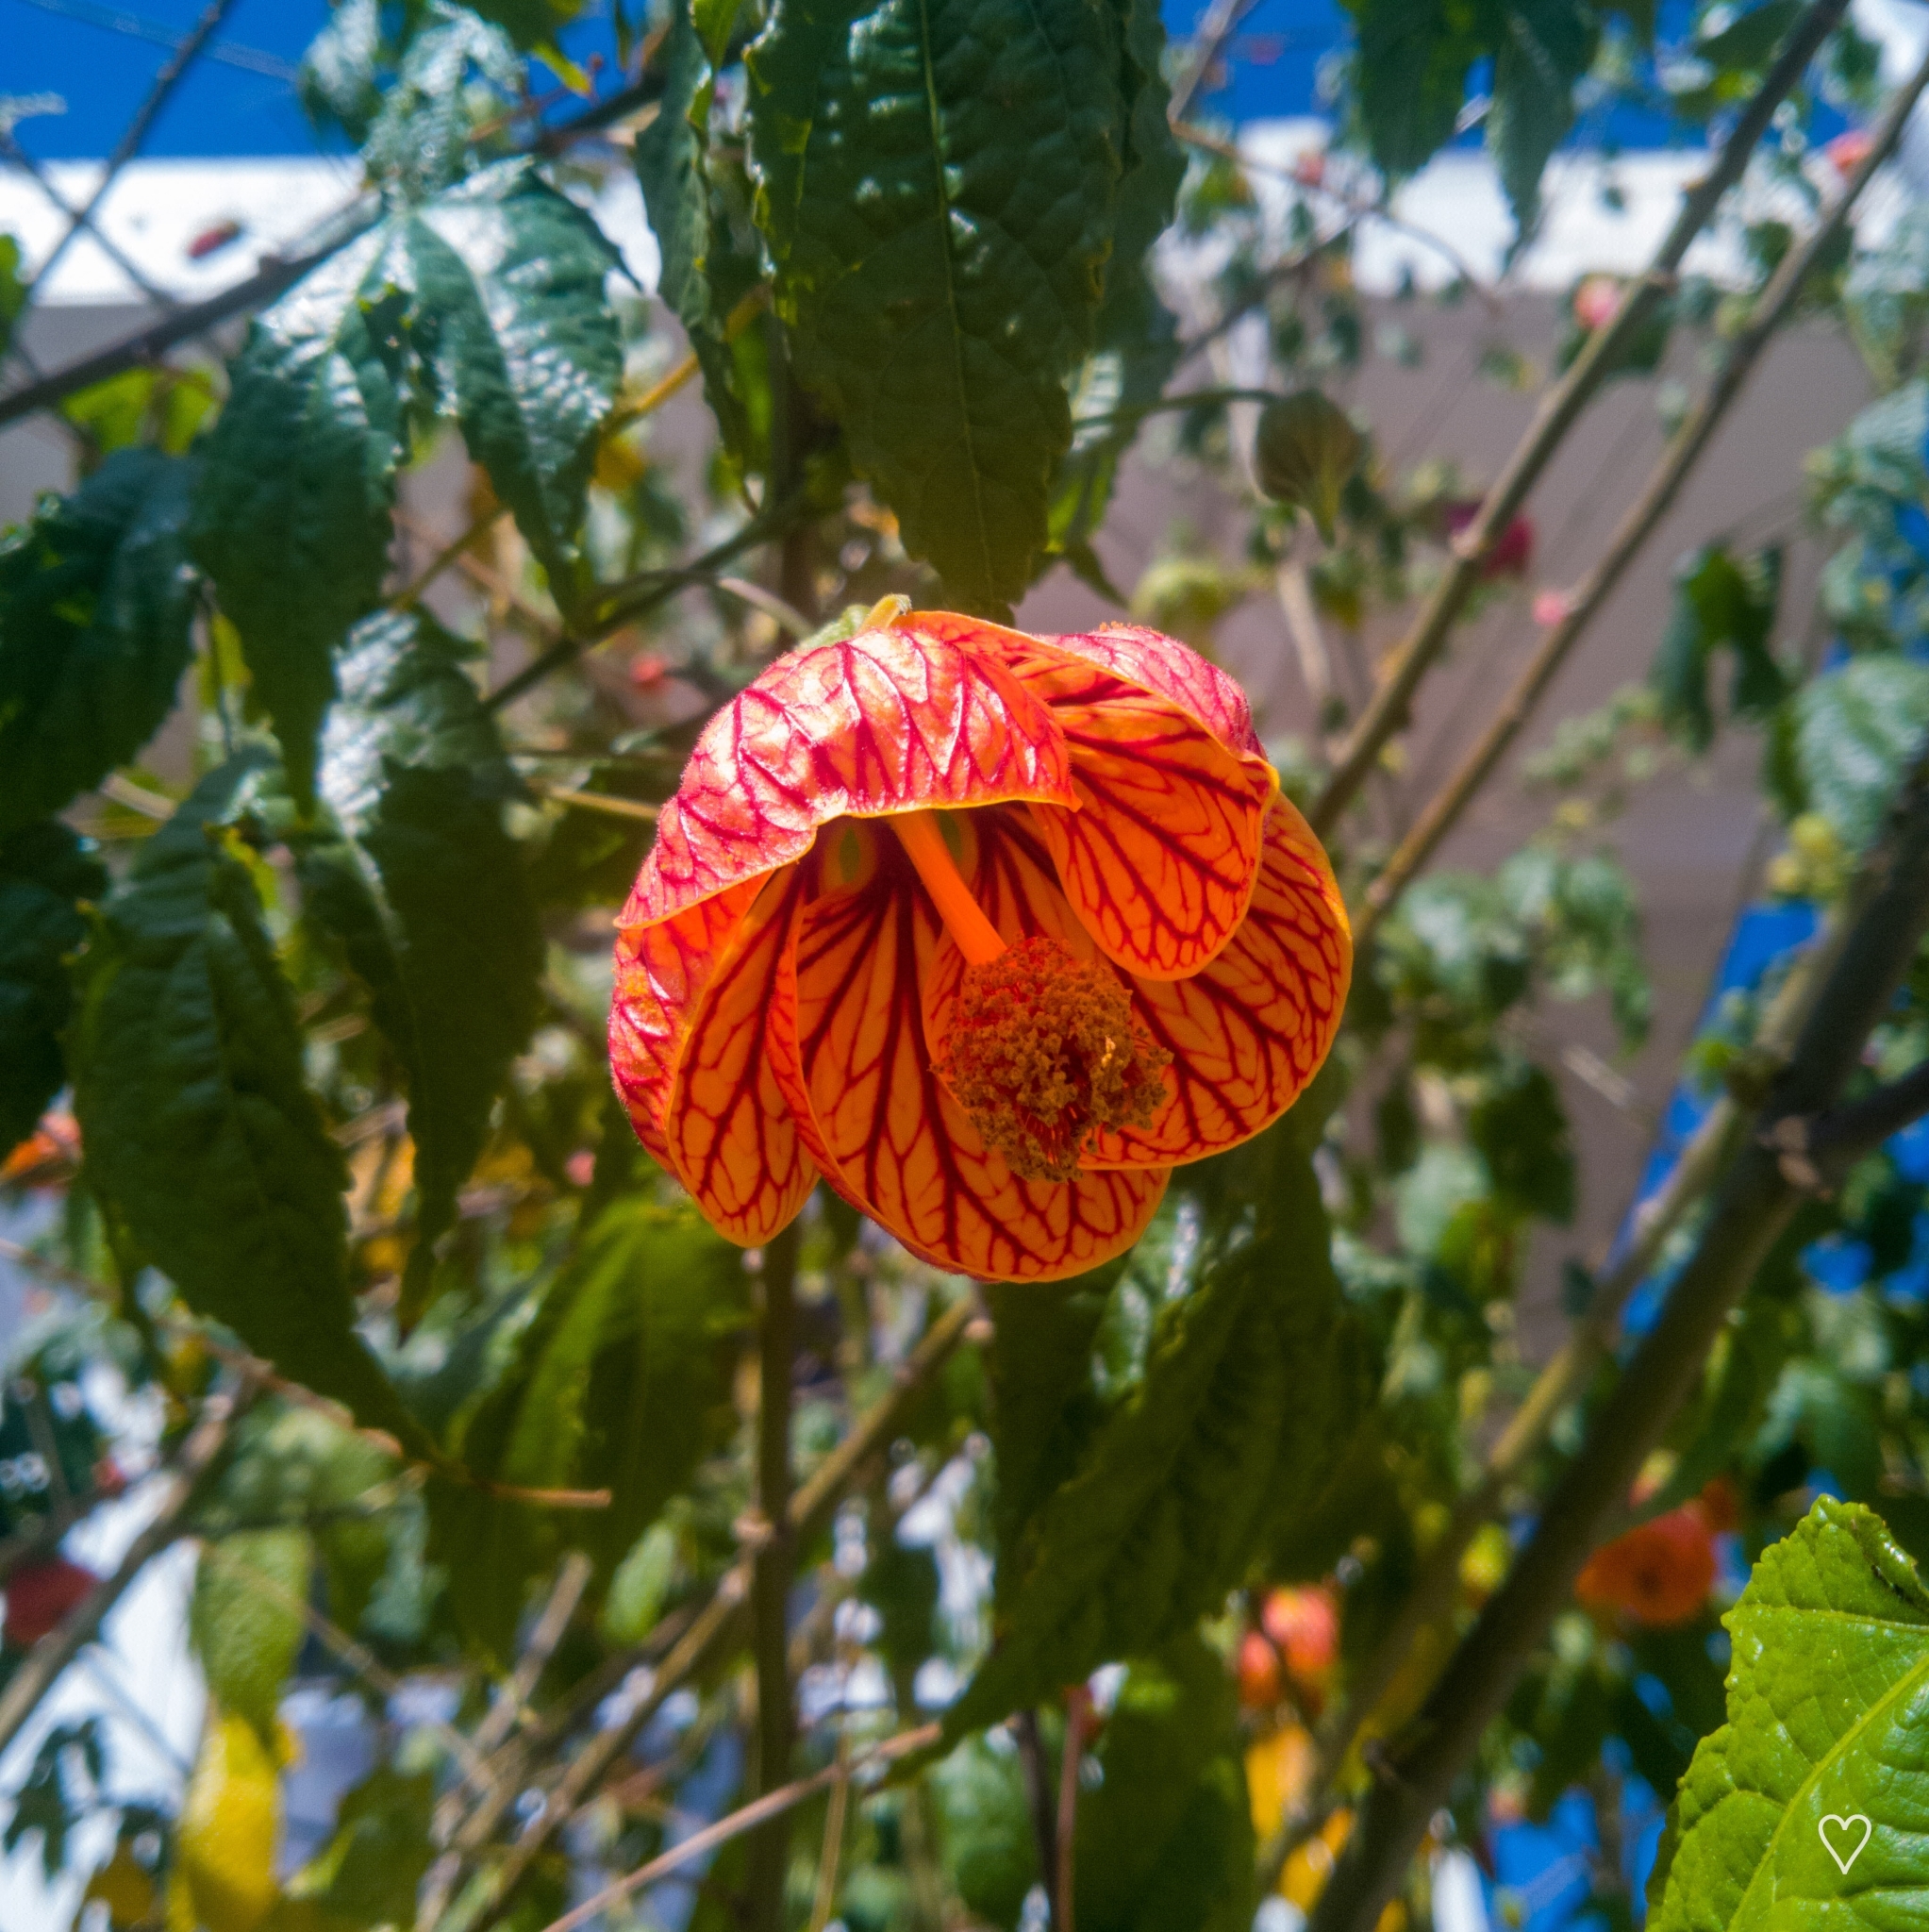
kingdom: Plantae
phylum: Tracheophyta
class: Magnoliopsida
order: Malvales
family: Malvaceae
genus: Callianthe
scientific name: Callianthe picta
